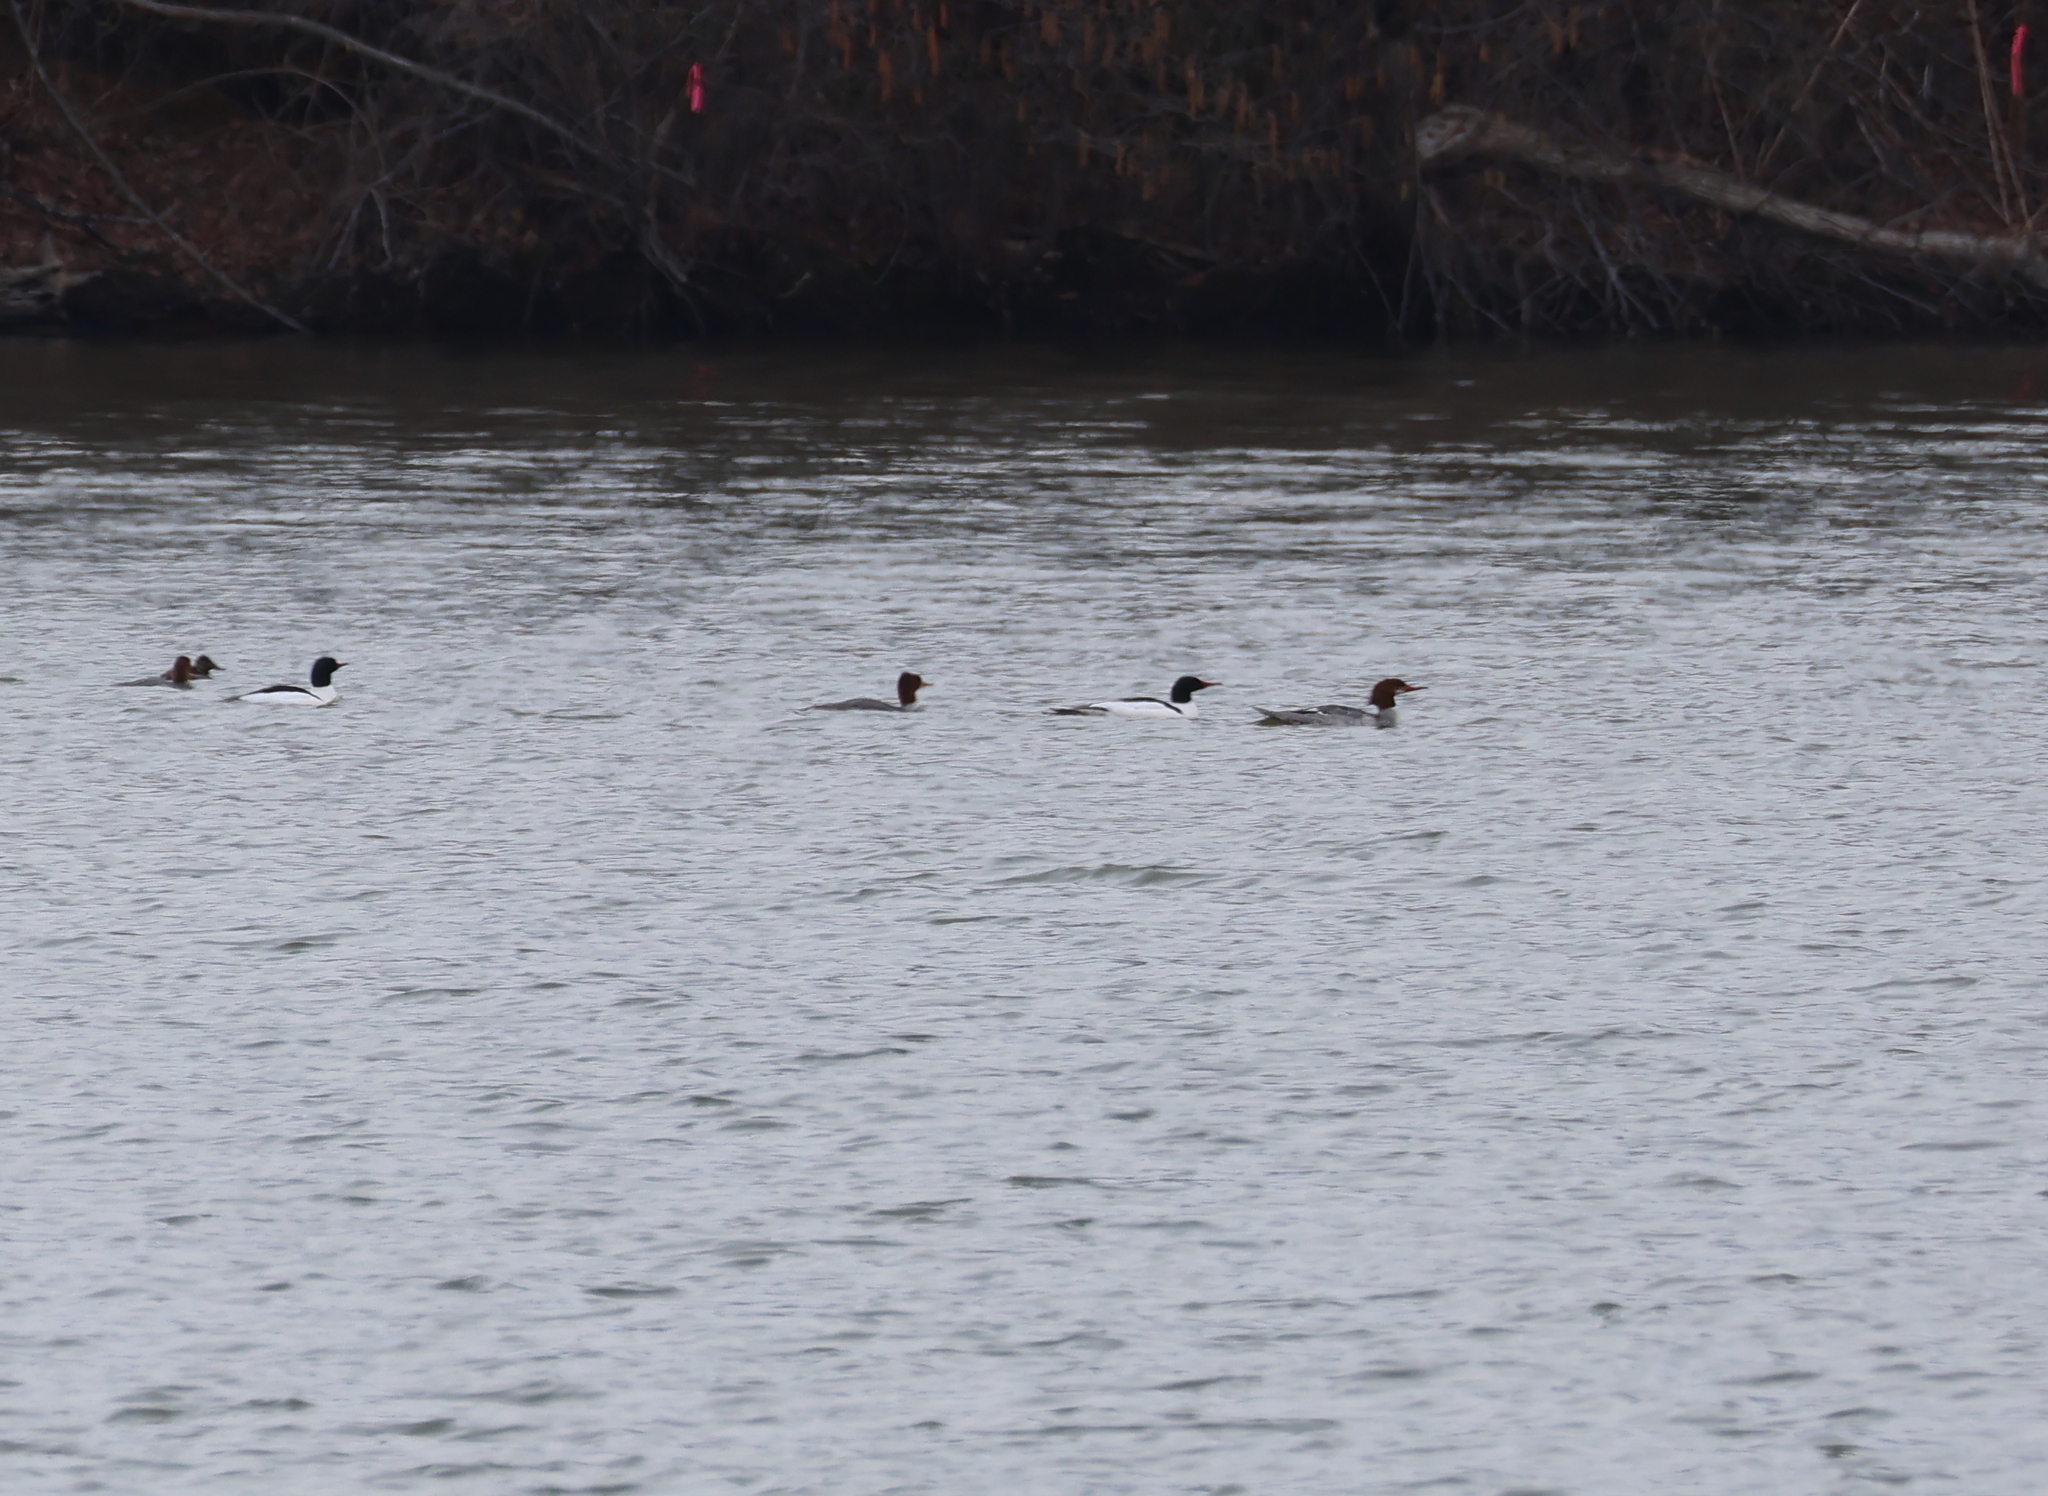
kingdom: Animalia
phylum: Chordata
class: Aves
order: Anseriformes
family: Anatidae
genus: Mergus
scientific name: Mergus merganser
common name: Common merganser
